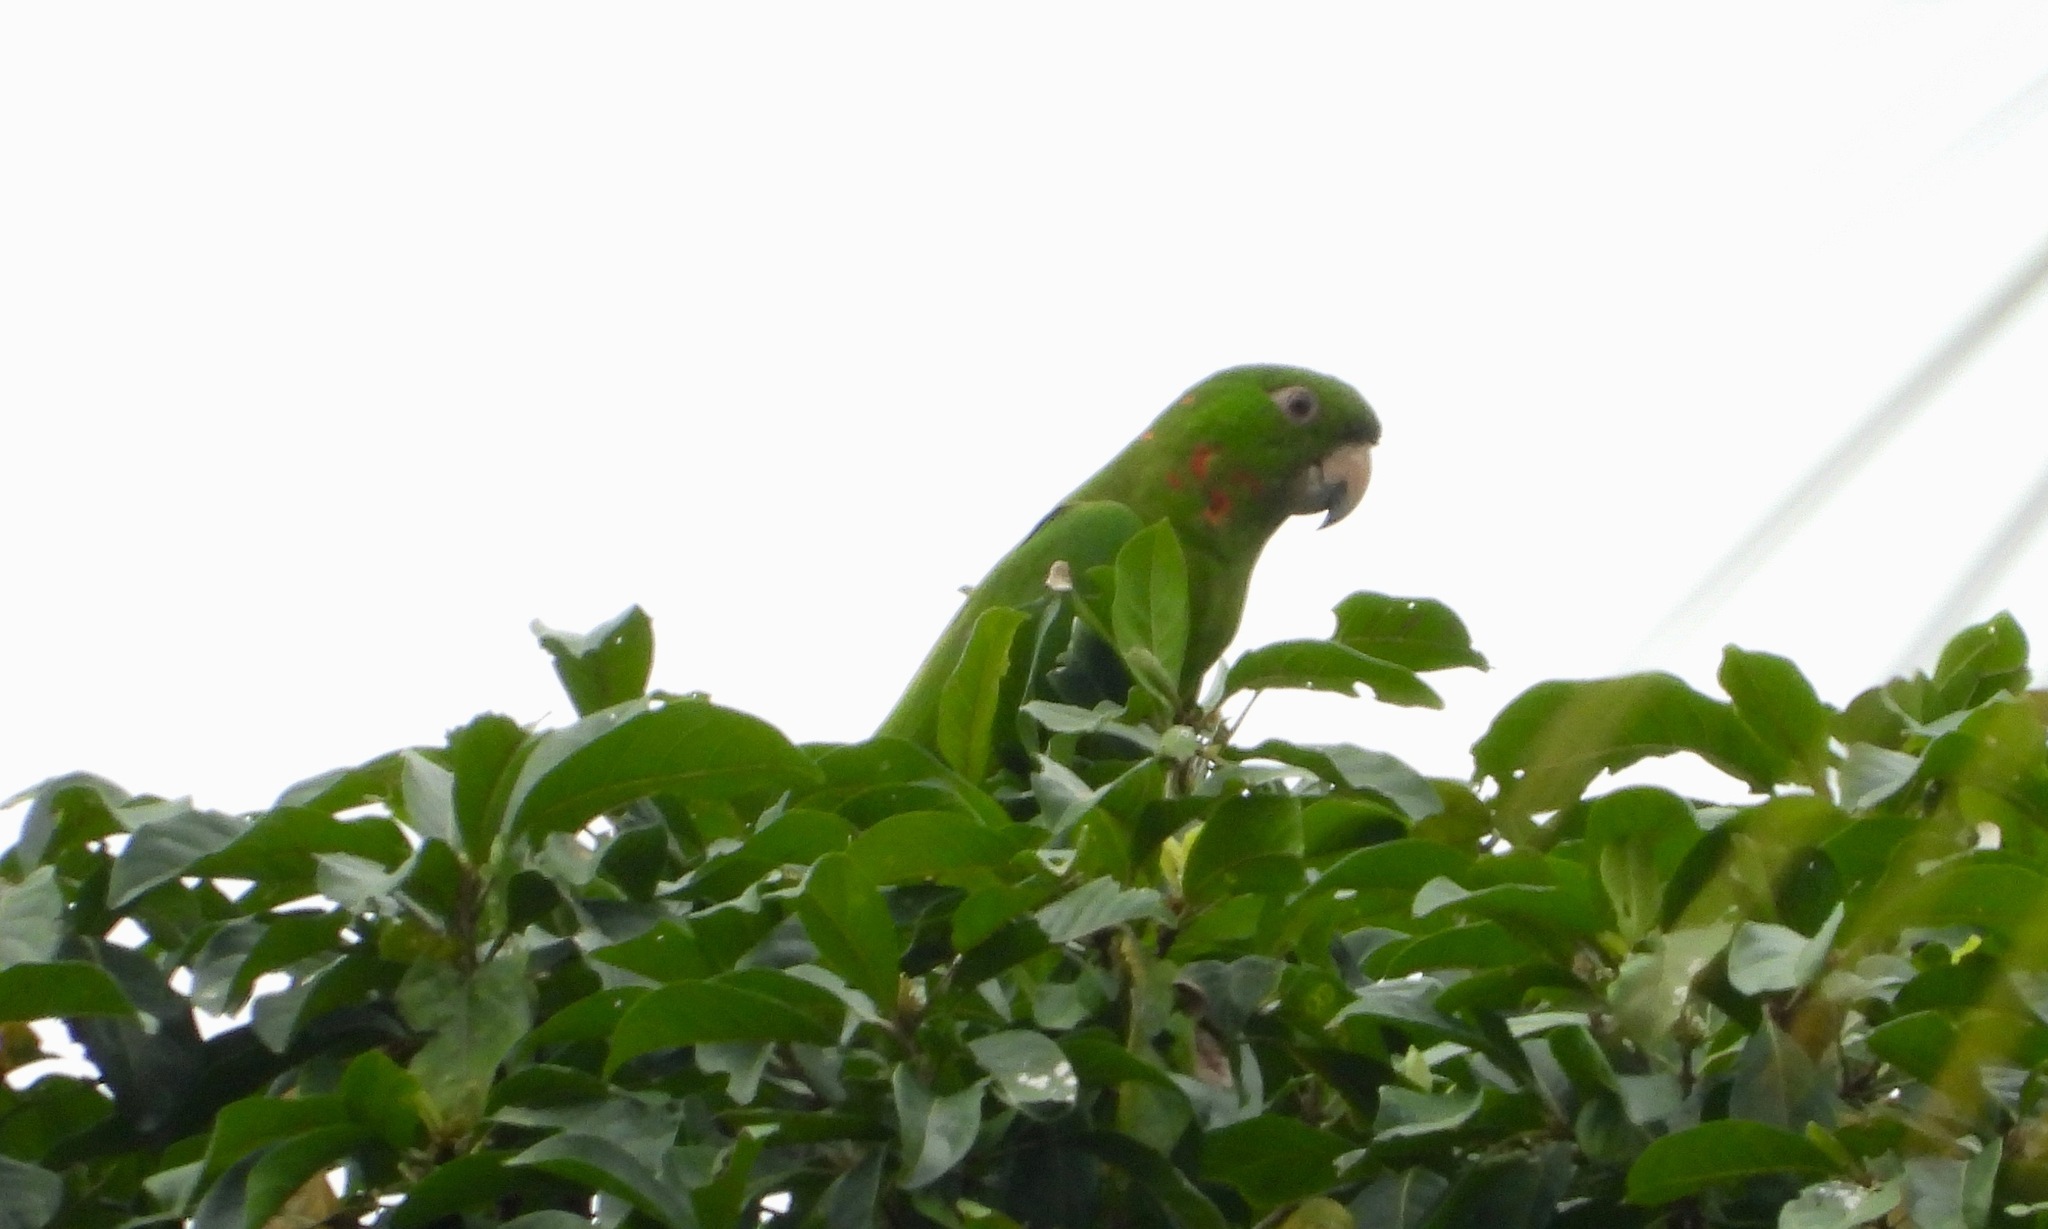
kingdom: Animalia
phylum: Chordata
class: Aves
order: Psittaciformes
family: Psittacidae
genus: Aratinga
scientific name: Aratinga strenua
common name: Pacific parakeet
